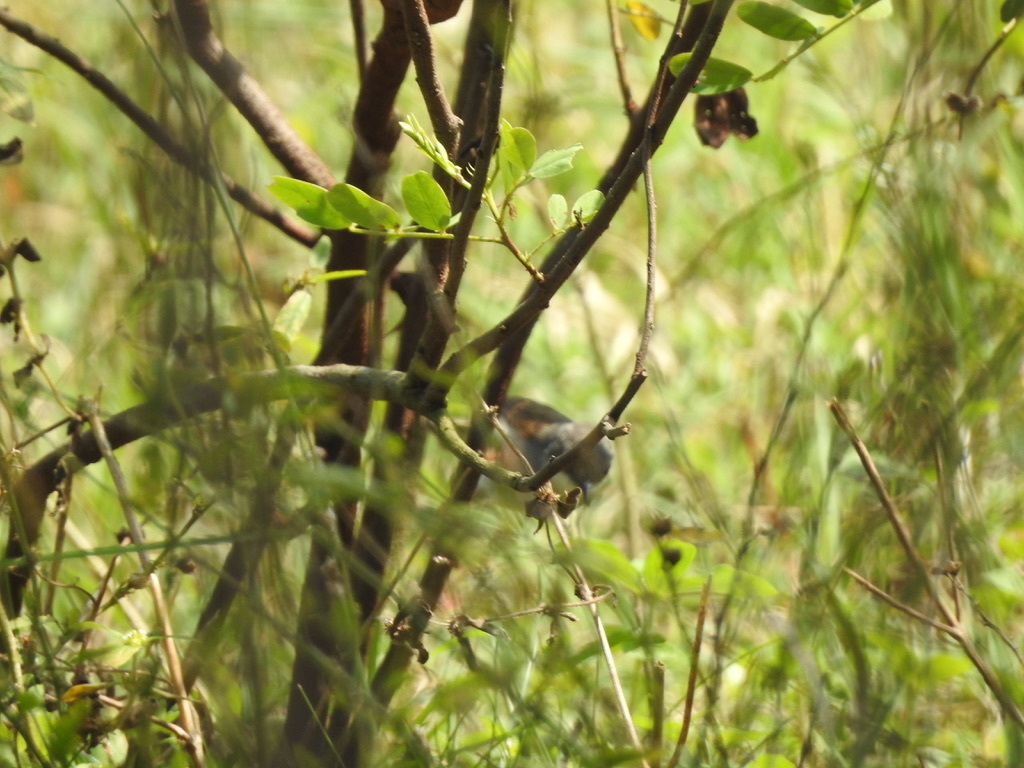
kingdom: Animalia
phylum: Chordata
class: Aves
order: Passeriformes
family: Cisticolidae
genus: Prinia
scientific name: Prinia hodgsonii
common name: Grey-breasted prinia
